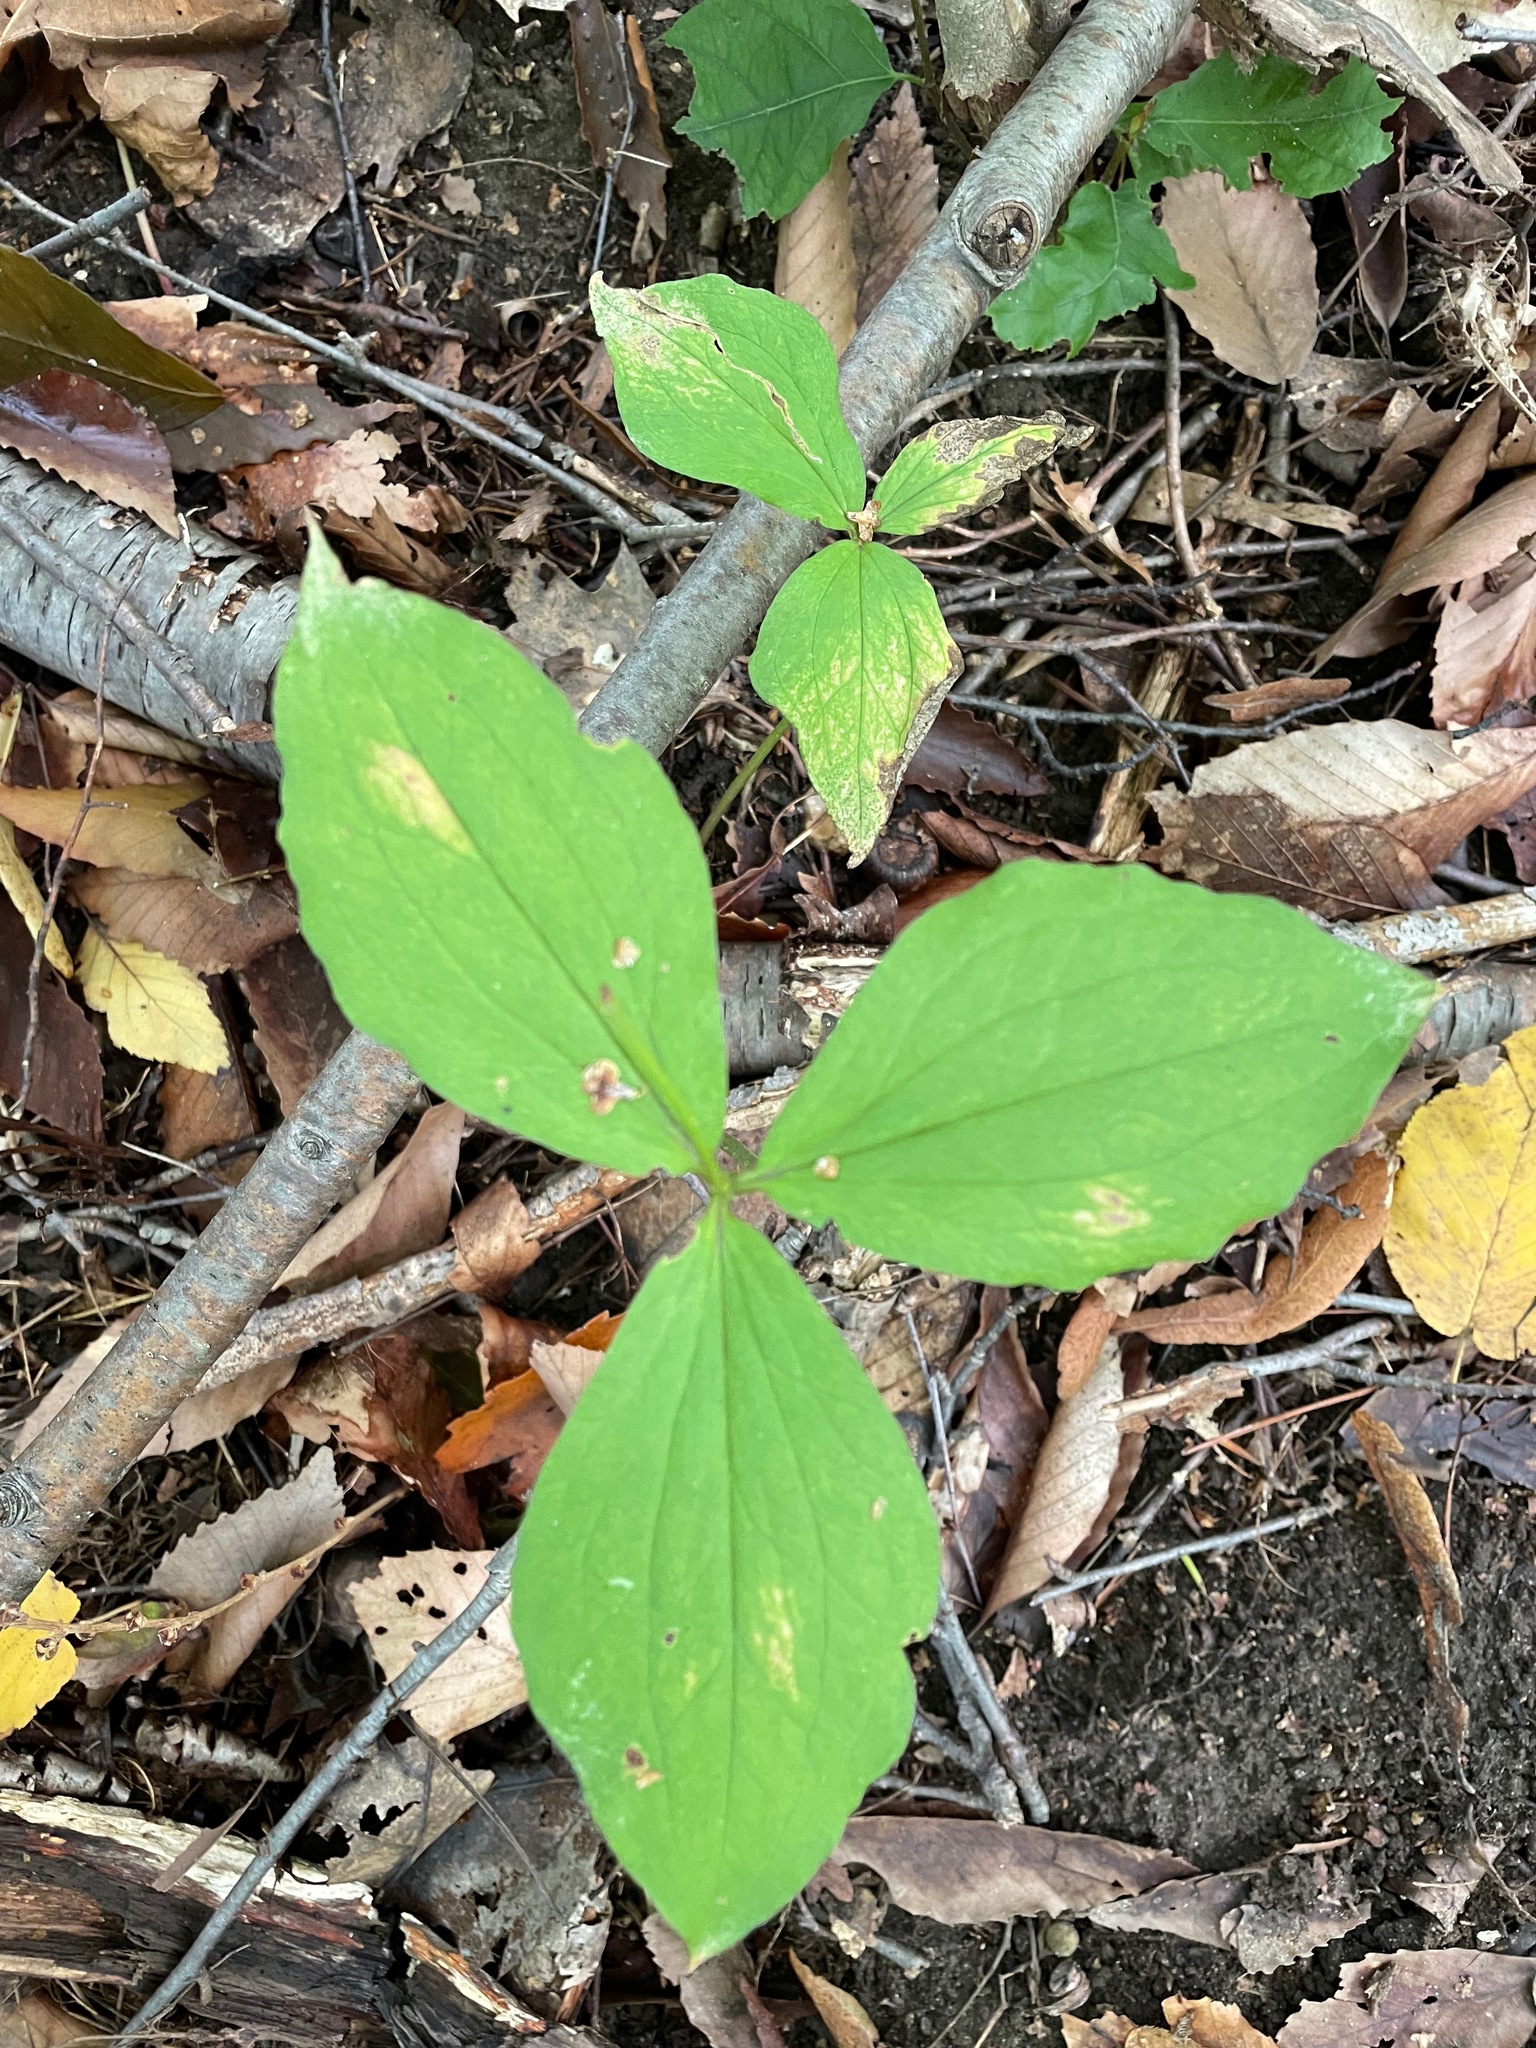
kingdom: Plantae
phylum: Tracheophyta
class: Liliopsida
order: Liliales
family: Melanthiaceae
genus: Trillium
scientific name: Trillium grandiflorum
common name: Great white trillium
